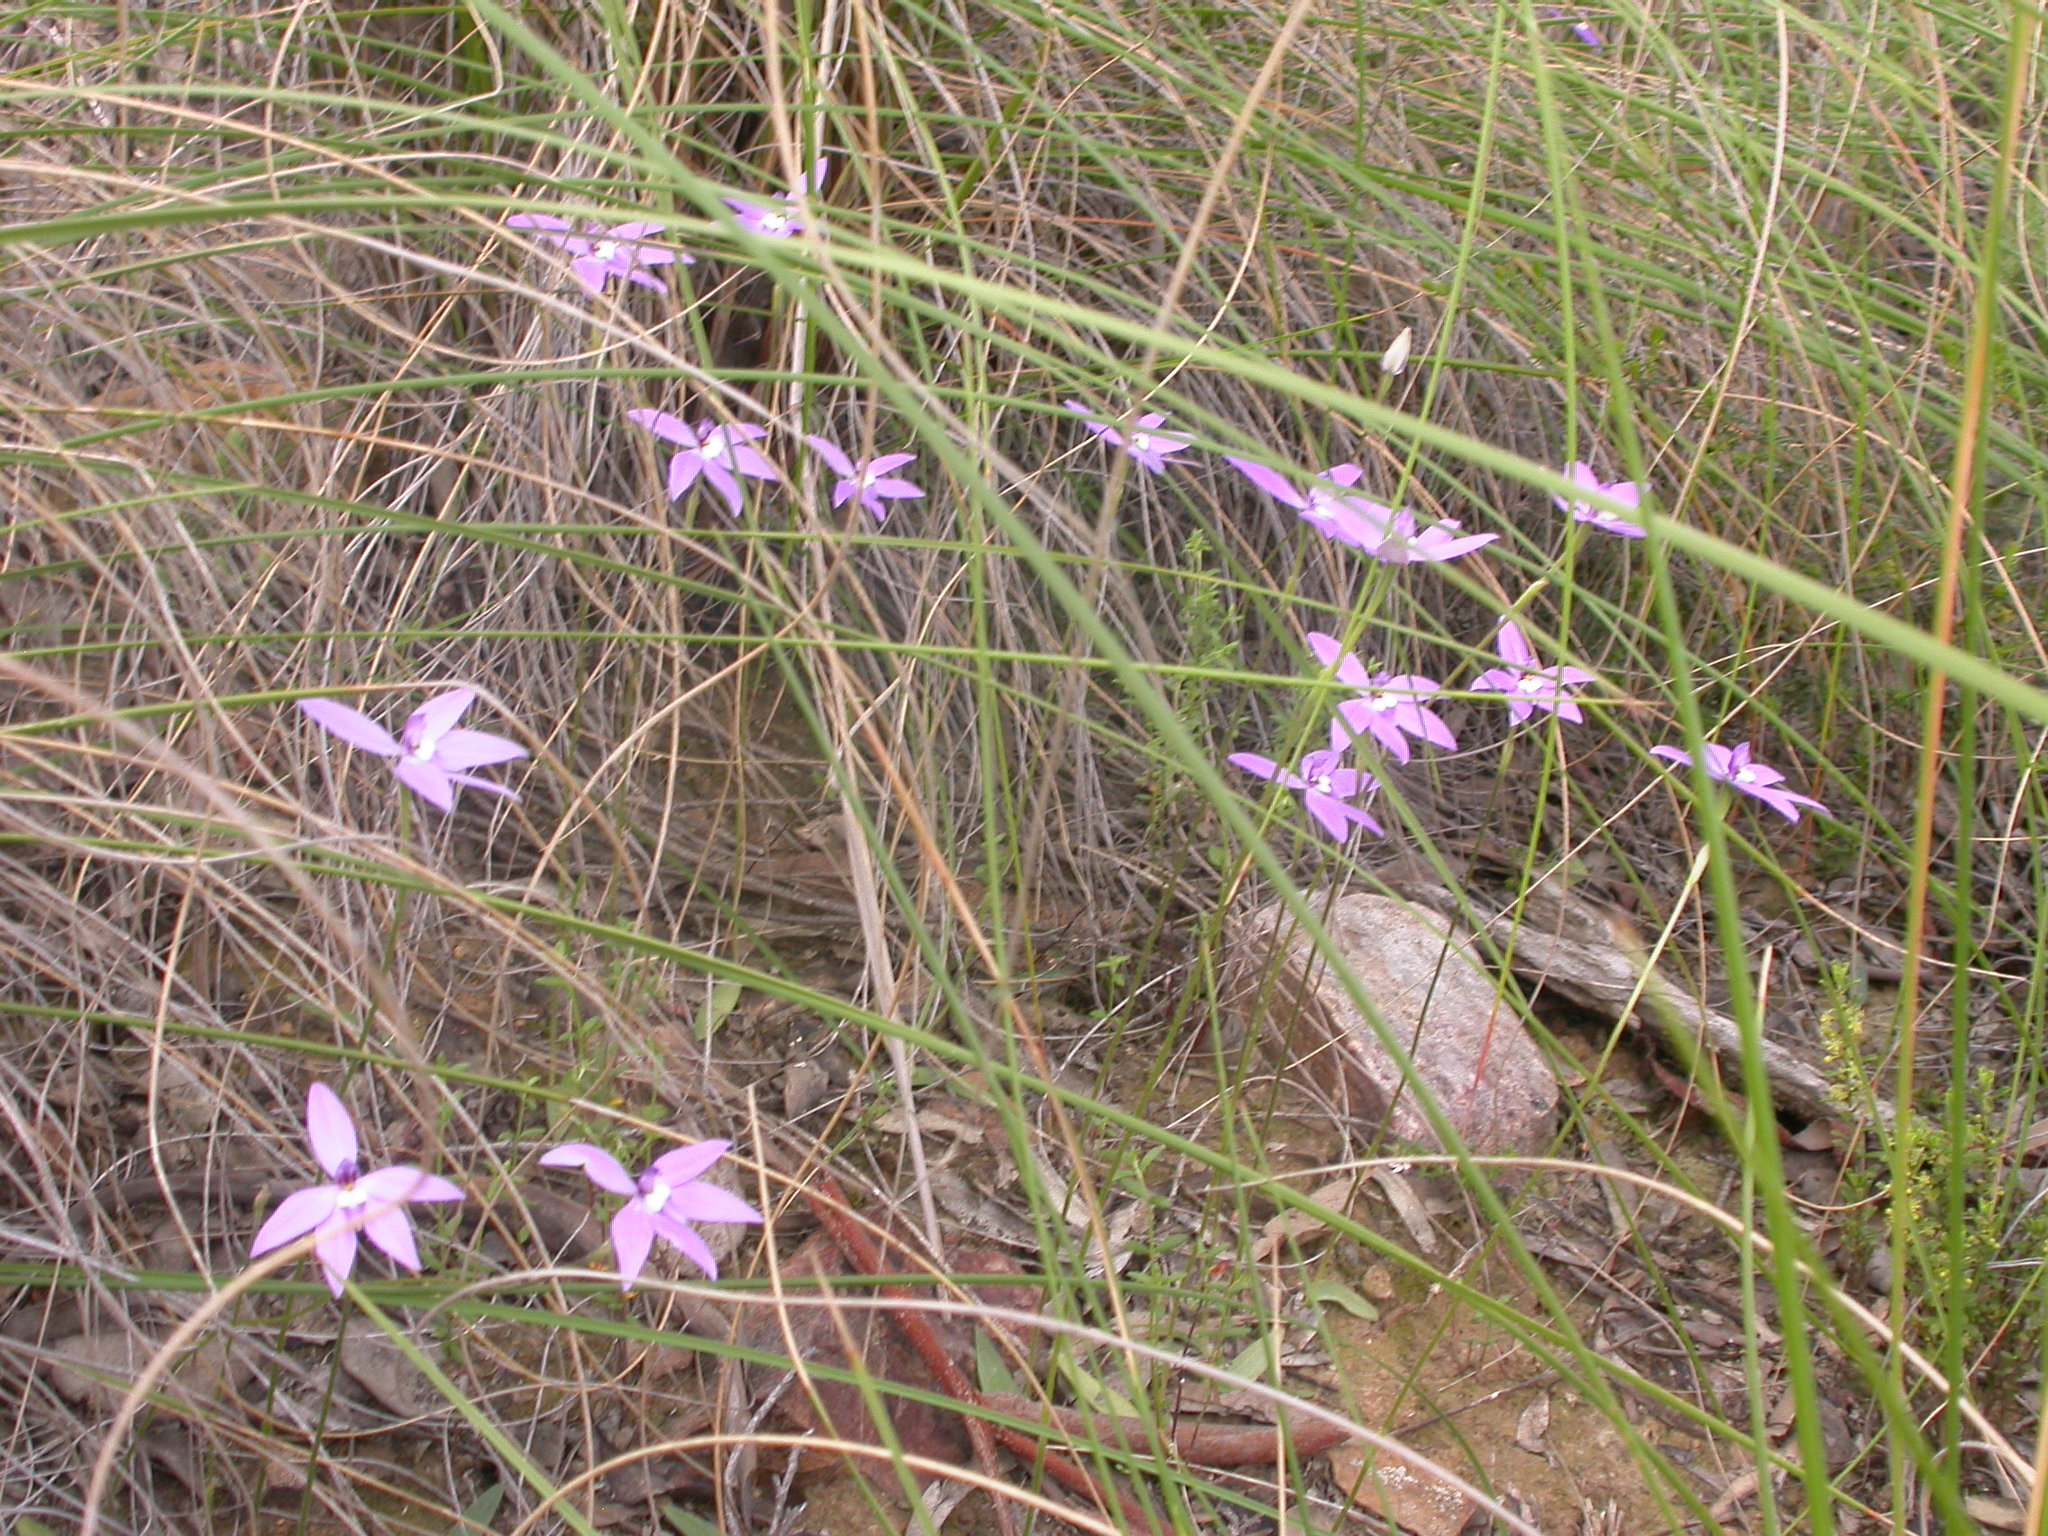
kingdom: Plantae
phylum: Tracheophyta
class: Liliopsida
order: Asparagales
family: Orchidaceae
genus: Caladenia
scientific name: Caladenia major
